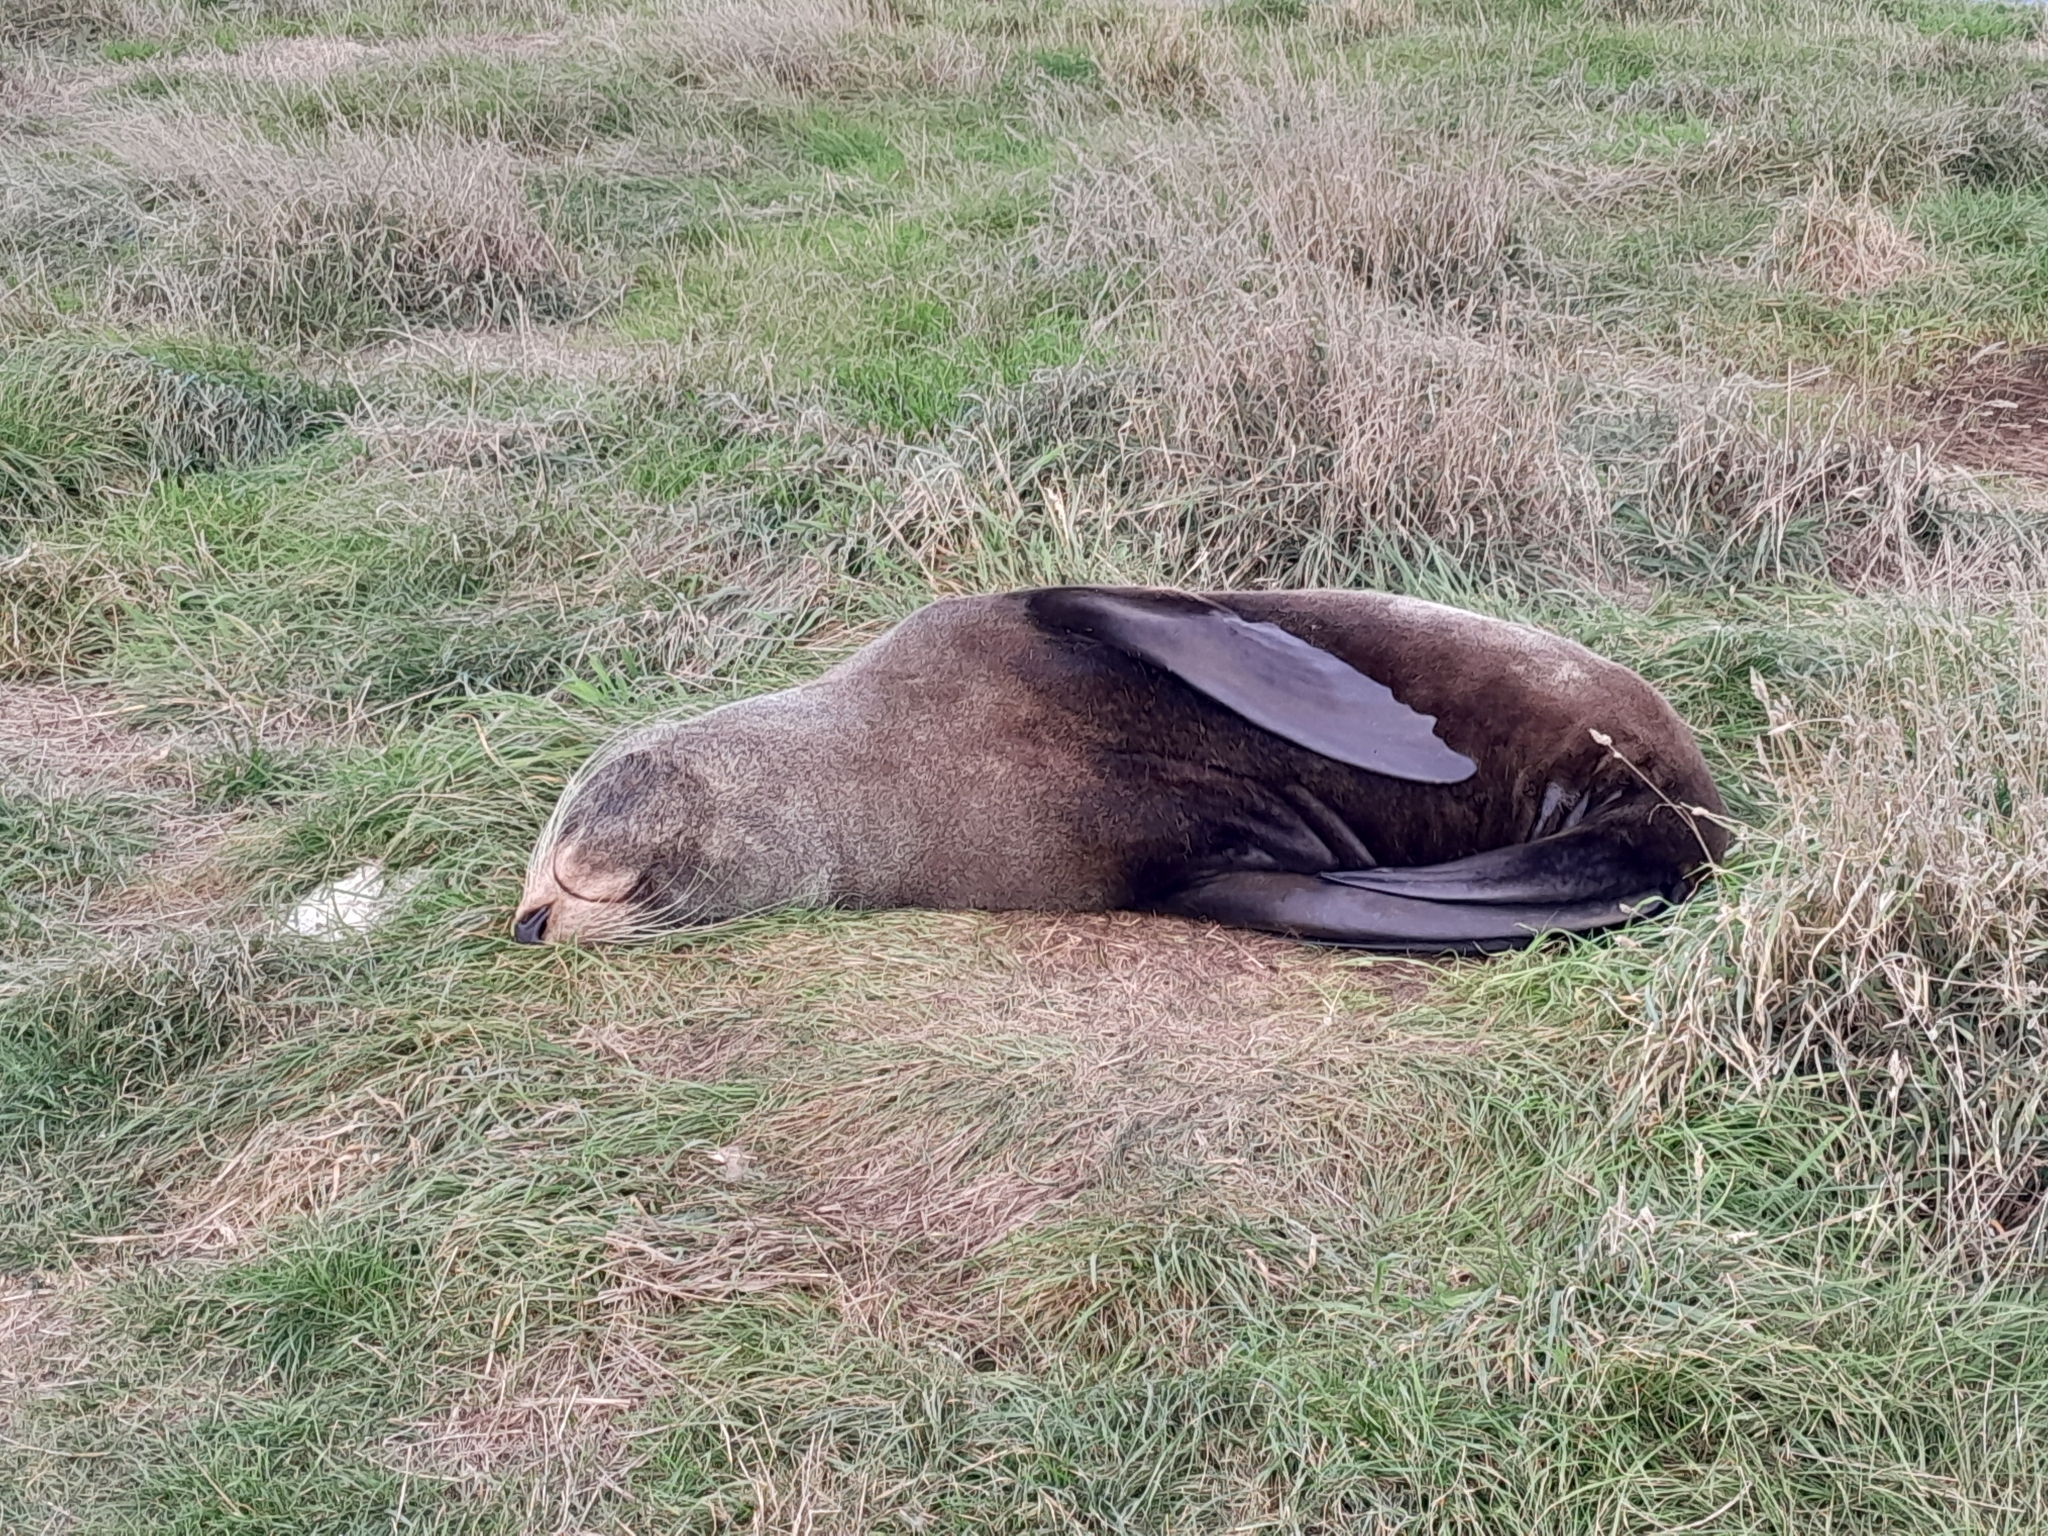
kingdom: Animalia
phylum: Chordata
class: Mammalia
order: Carnivora
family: Otariidae
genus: Arctocephalus
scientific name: Arctocephalus forsteri
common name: New zealand fur seal
